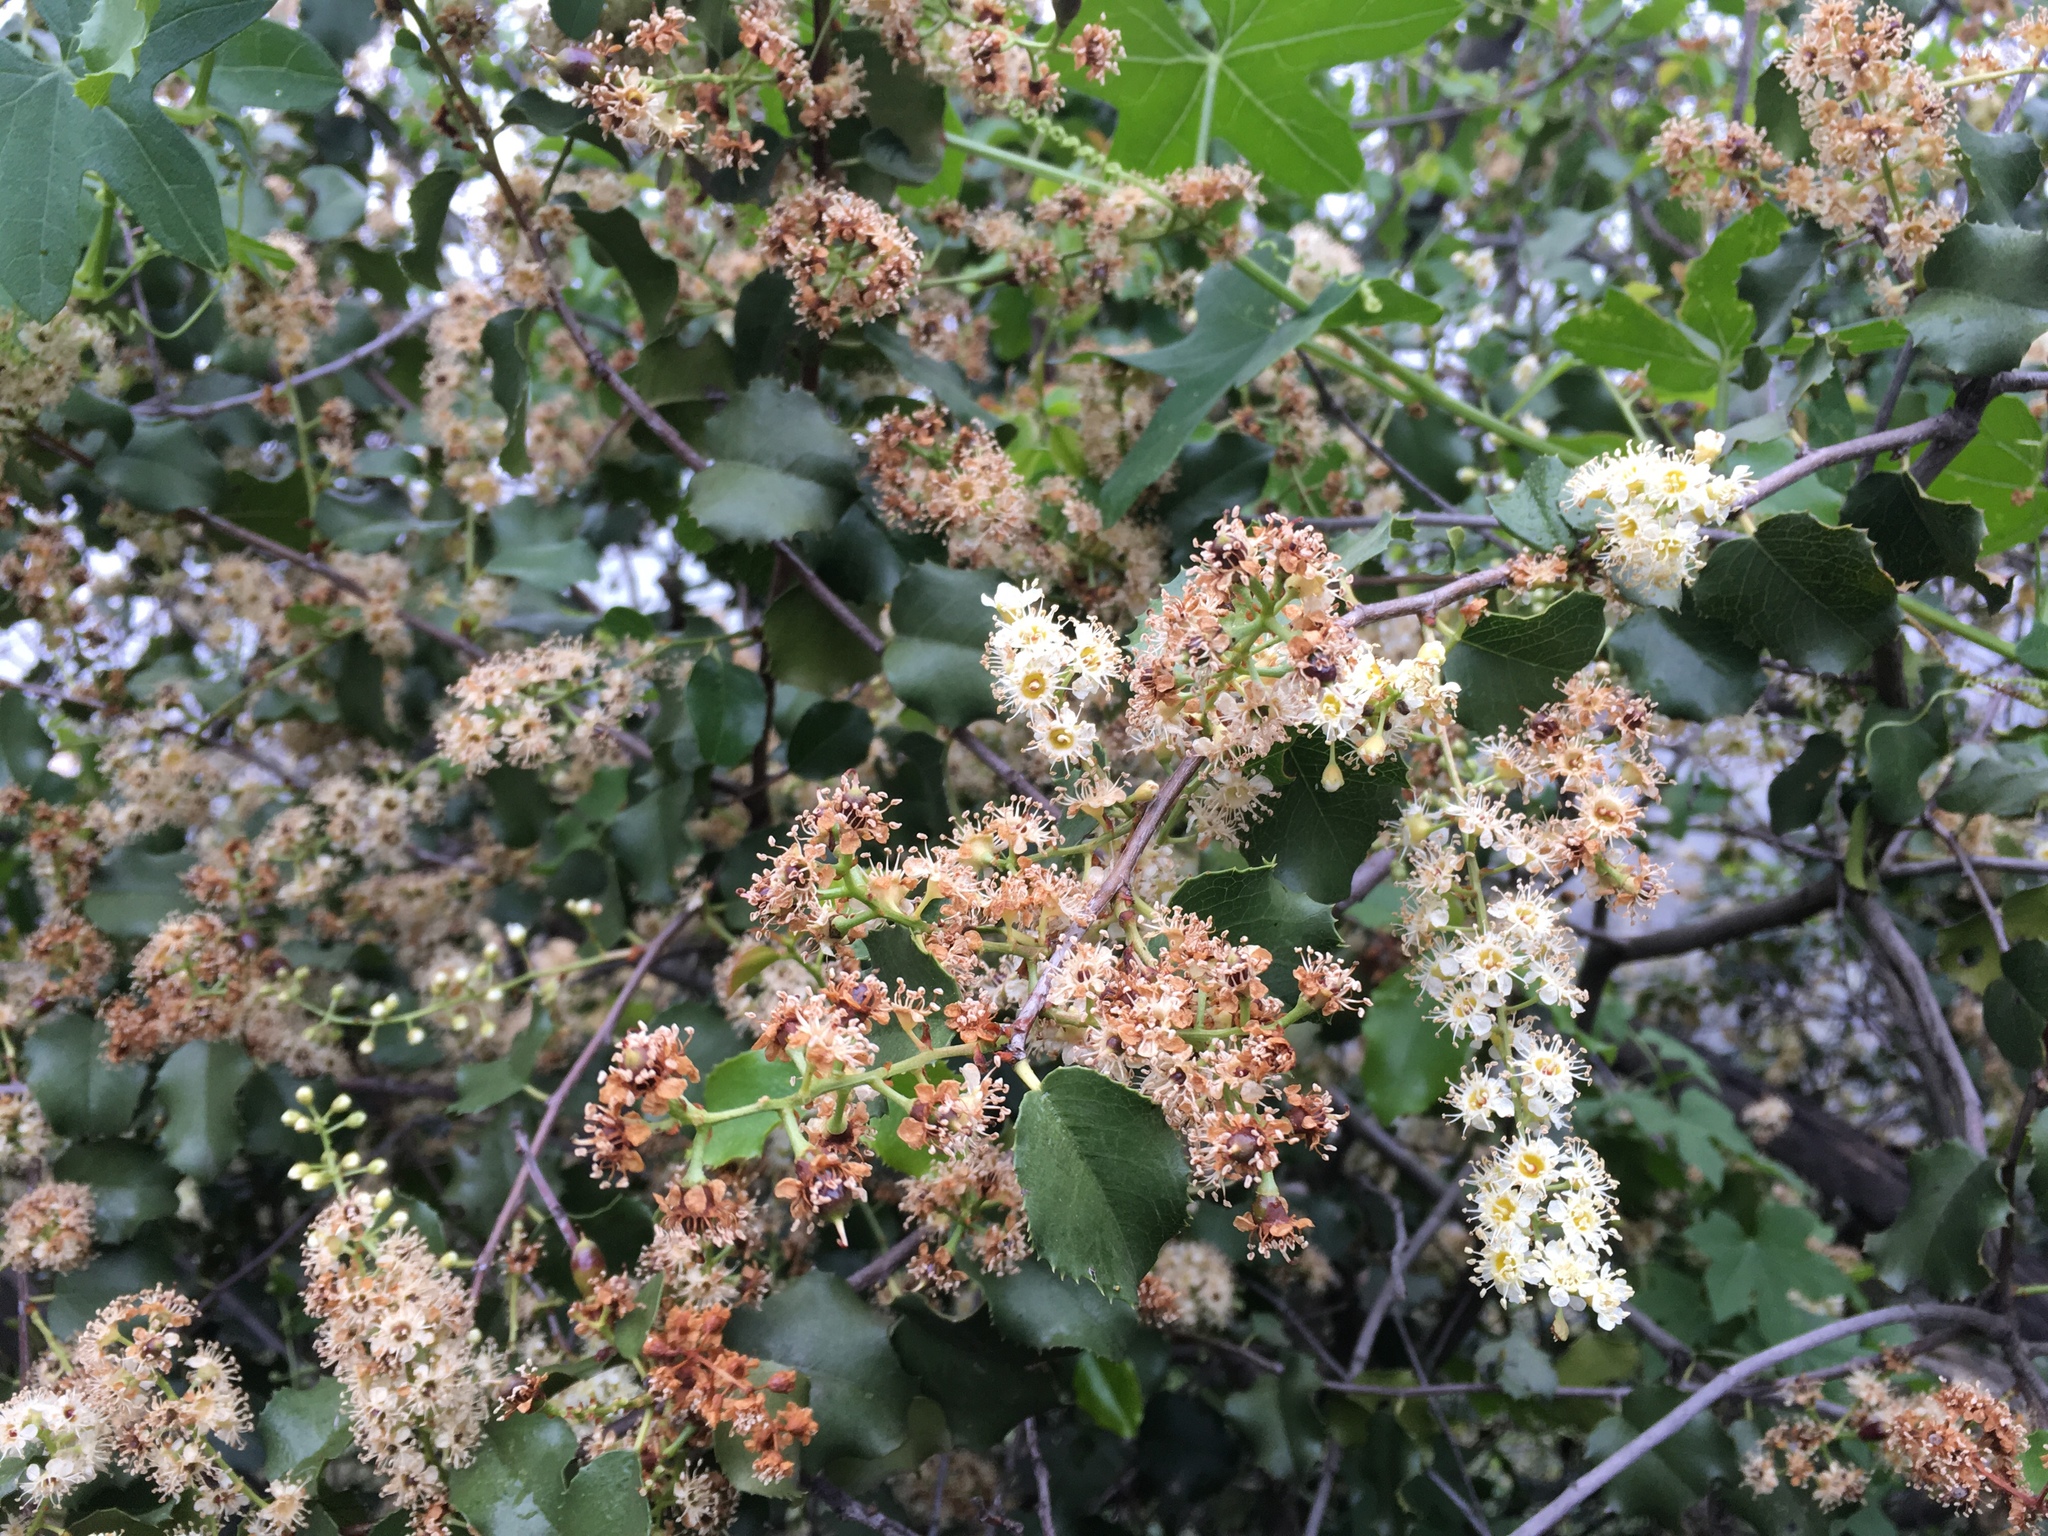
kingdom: Plantae
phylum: Tracheophyta
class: Magnoliopsida
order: Rosales
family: Rosaceae
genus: Prunus
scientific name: Prunus ilicifolia
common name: Hollyleaf cherry
